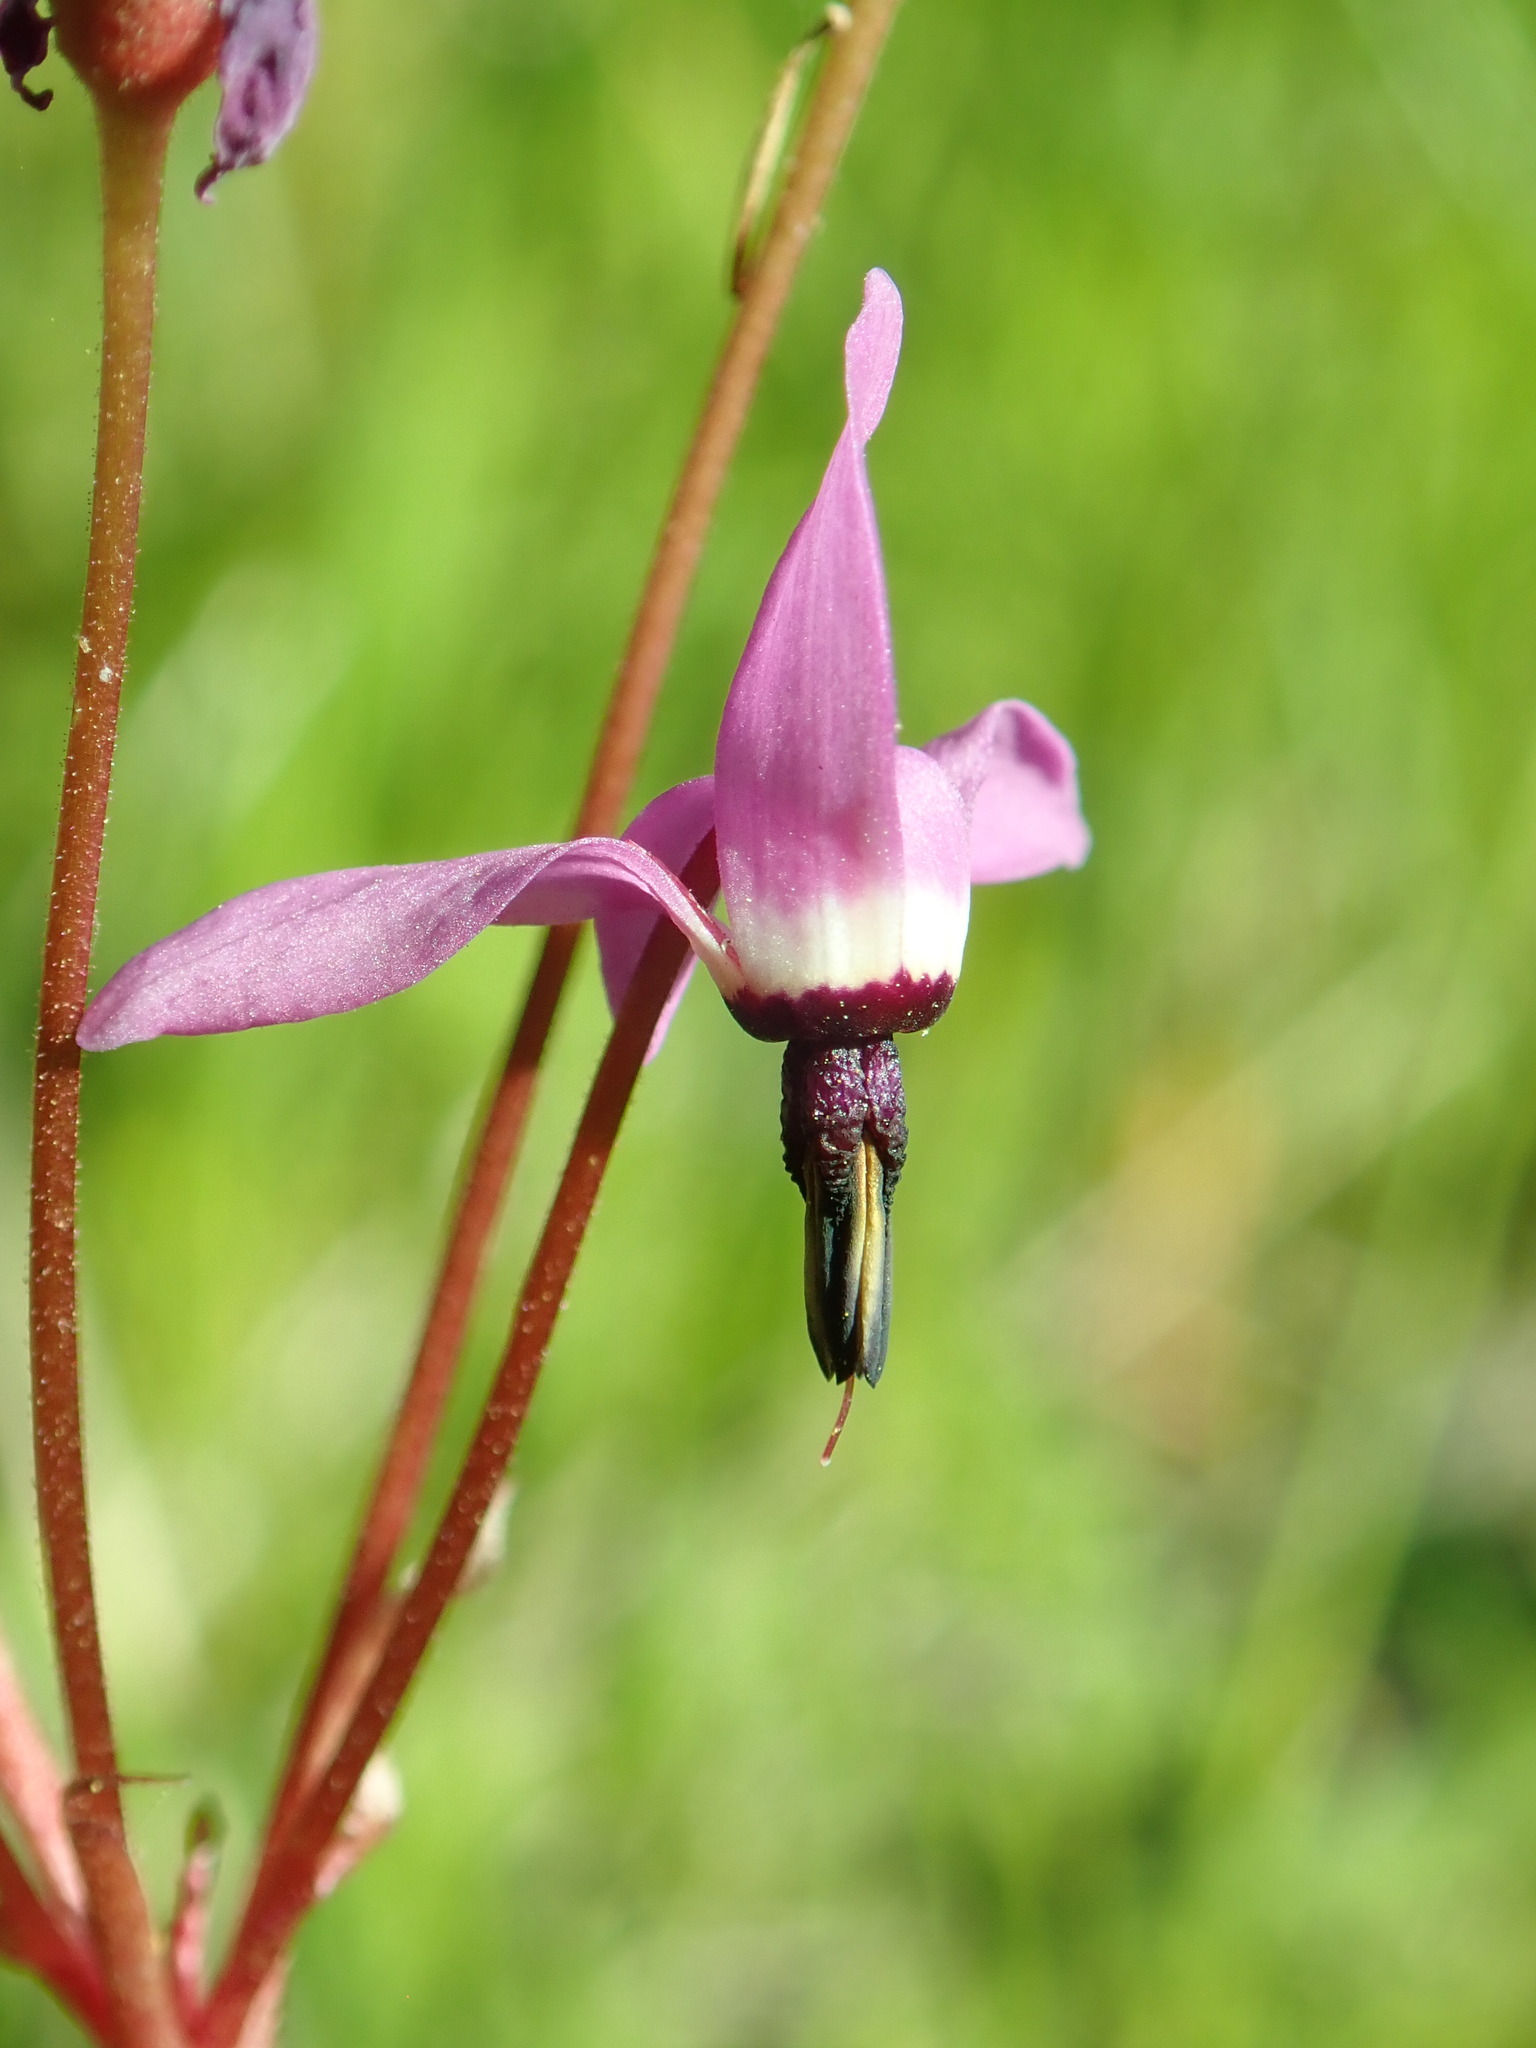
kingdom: Plantae
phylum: Tracheophyta
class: Magnoliopsida
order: Ericales
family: Primulaceae
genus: Dodecatheon
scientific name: Dodecatheon hendersonii
